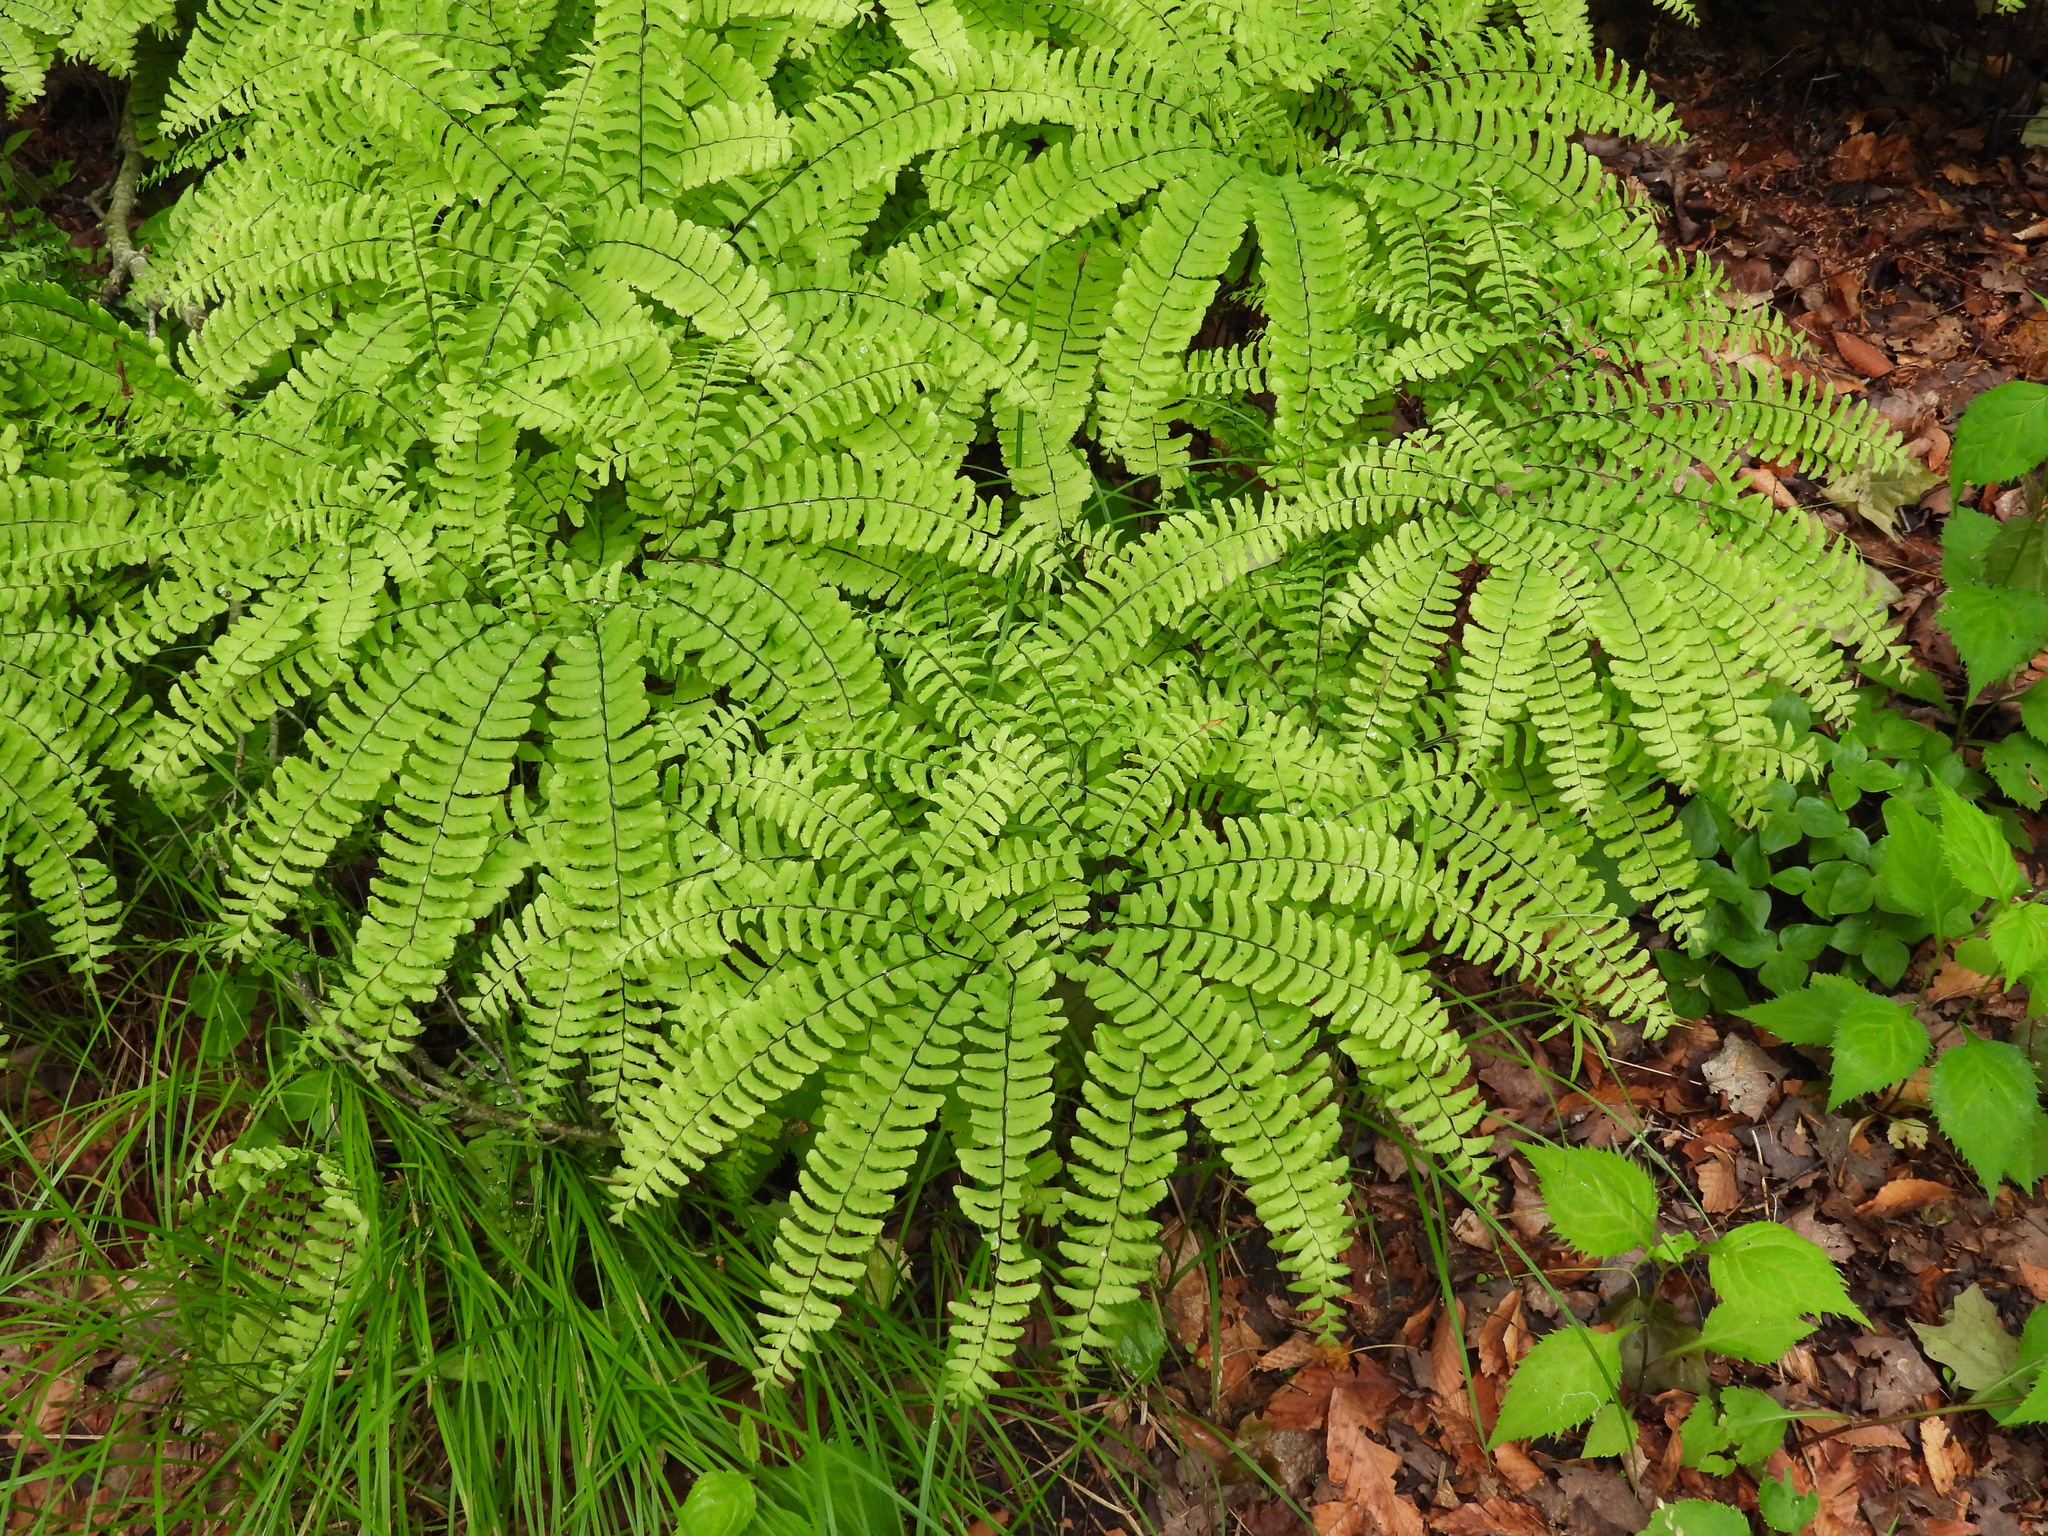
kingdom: Plantae
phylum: Tracheophyta
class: Polypodiopsida
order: Polypodiales
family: Pteridaceae
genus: Adiantum
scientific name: Adiantum pedatum
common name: Five-finger fern
